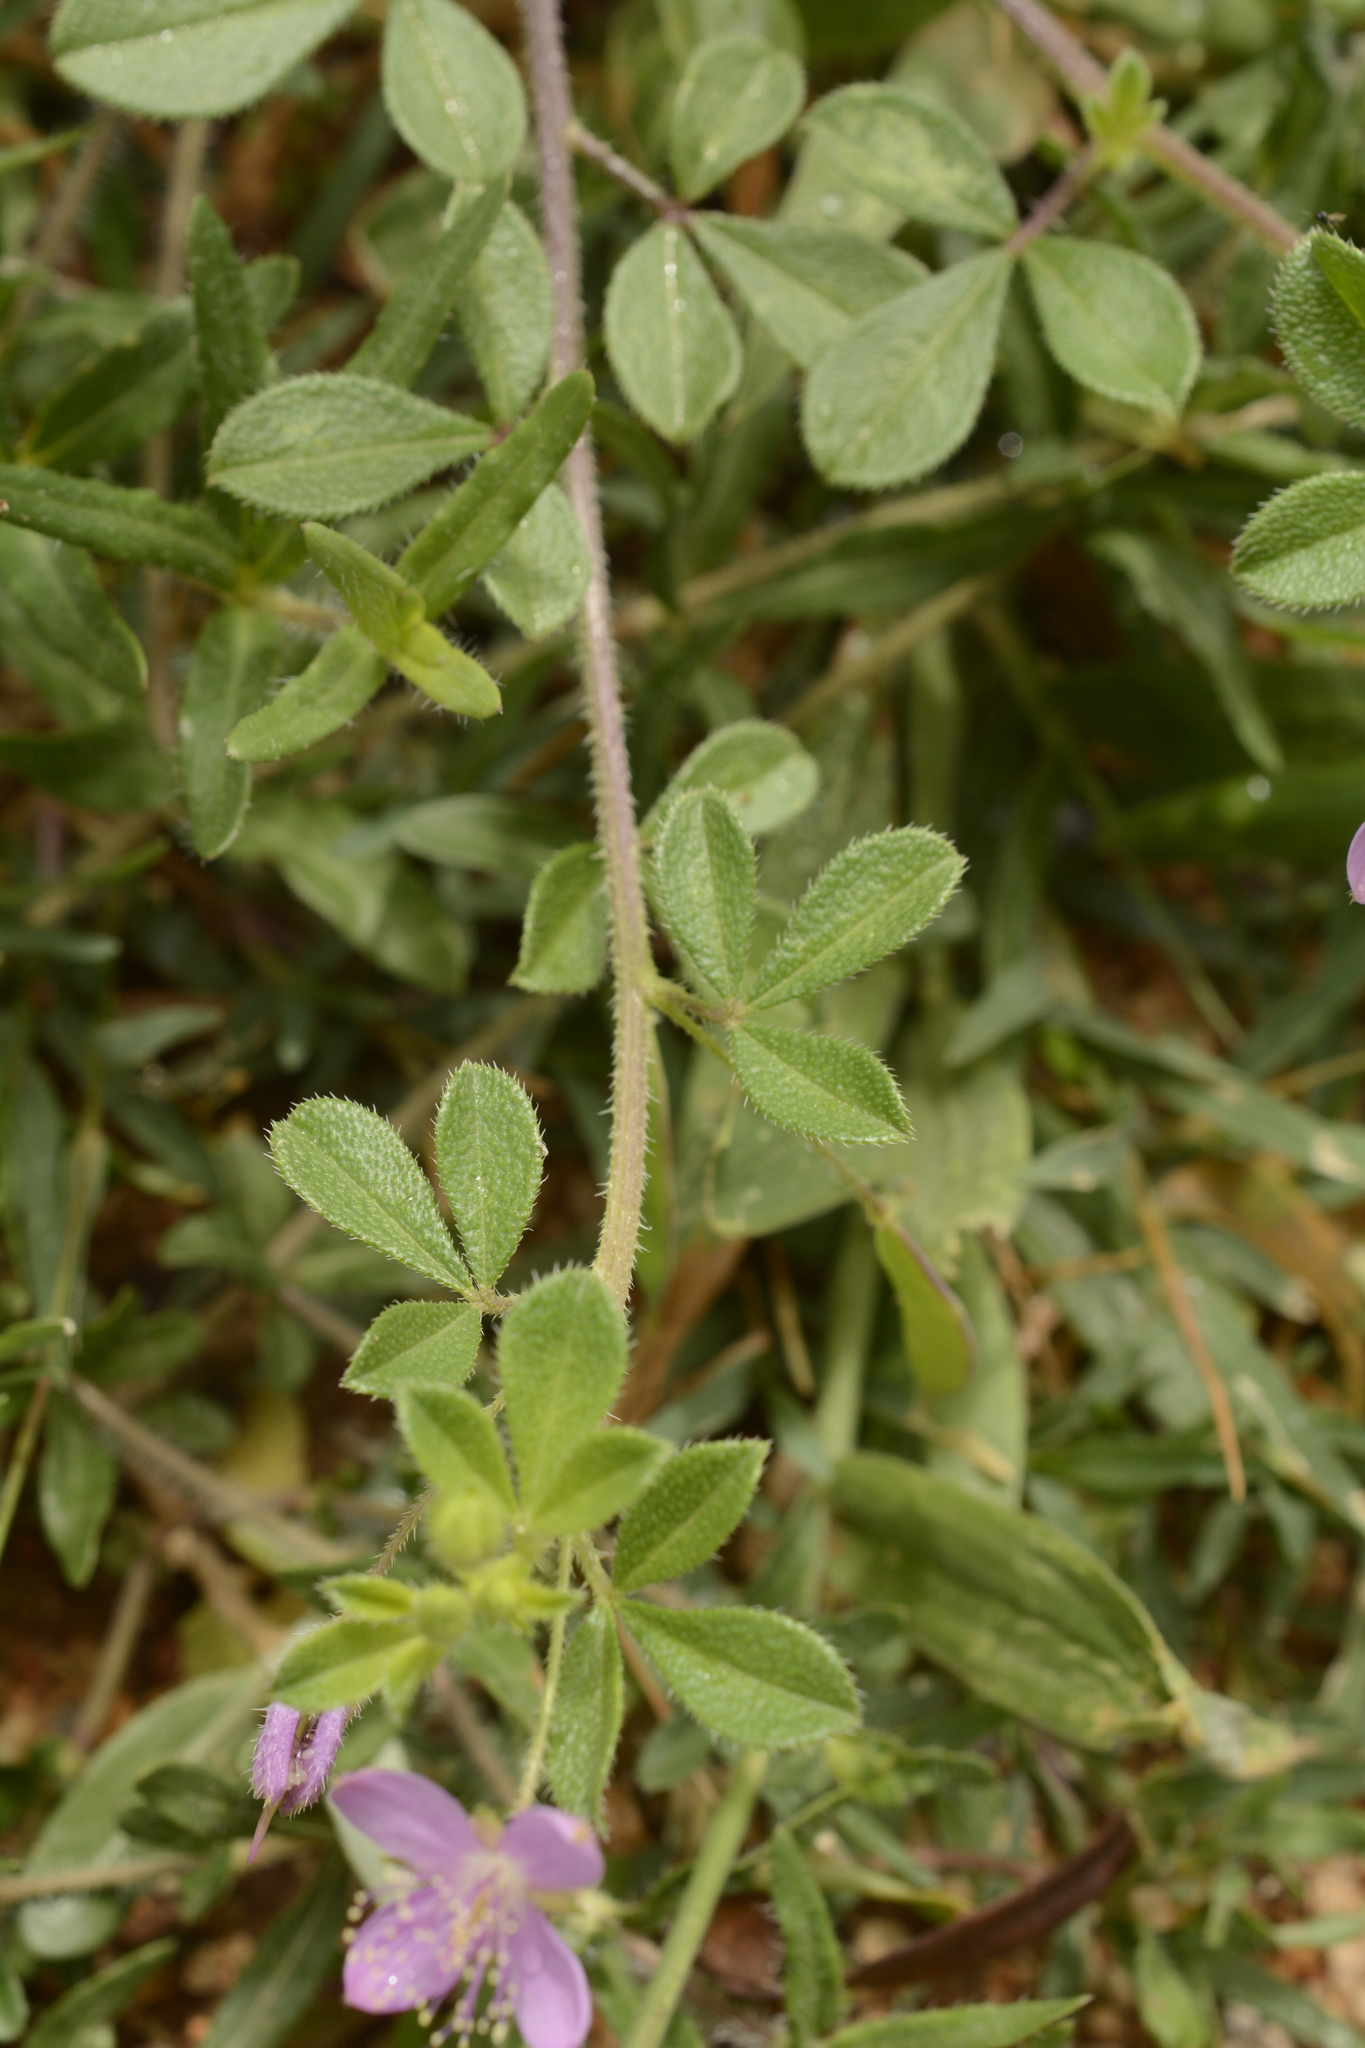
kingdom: Plantae
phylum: Tracheophyta
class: Magnoliopsida
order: Brassicales
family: Cleomaceae
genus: Corynandra
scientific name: Corynandra felina
